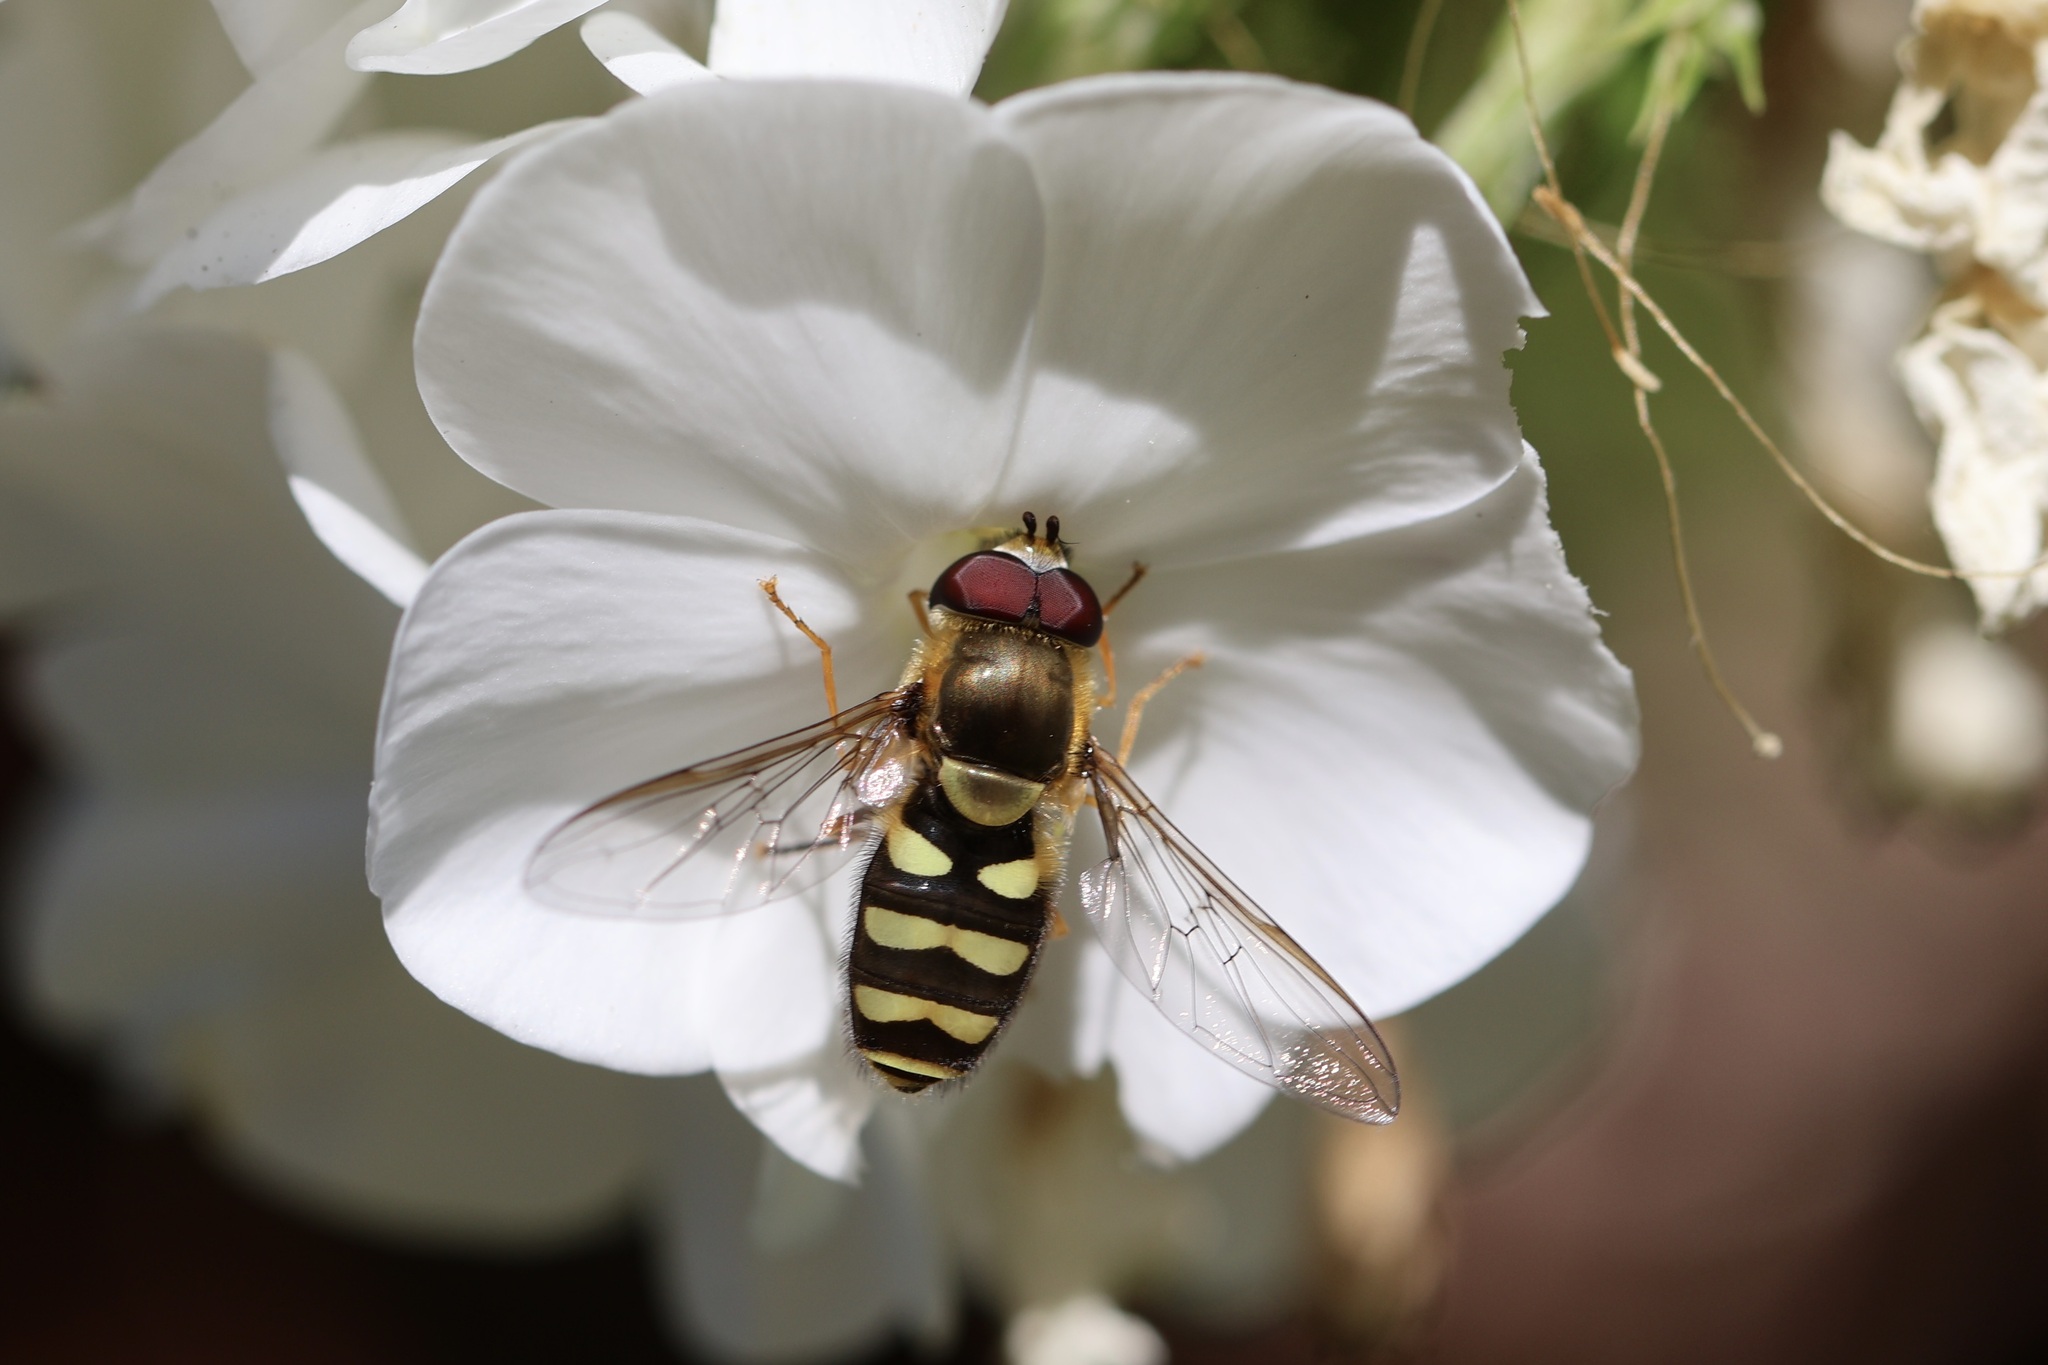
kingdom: Animalia
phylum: Arthropoda
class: Insecta
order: Diptera
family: Syrphidae
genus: Syrphus
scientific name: Syrphus opinator
